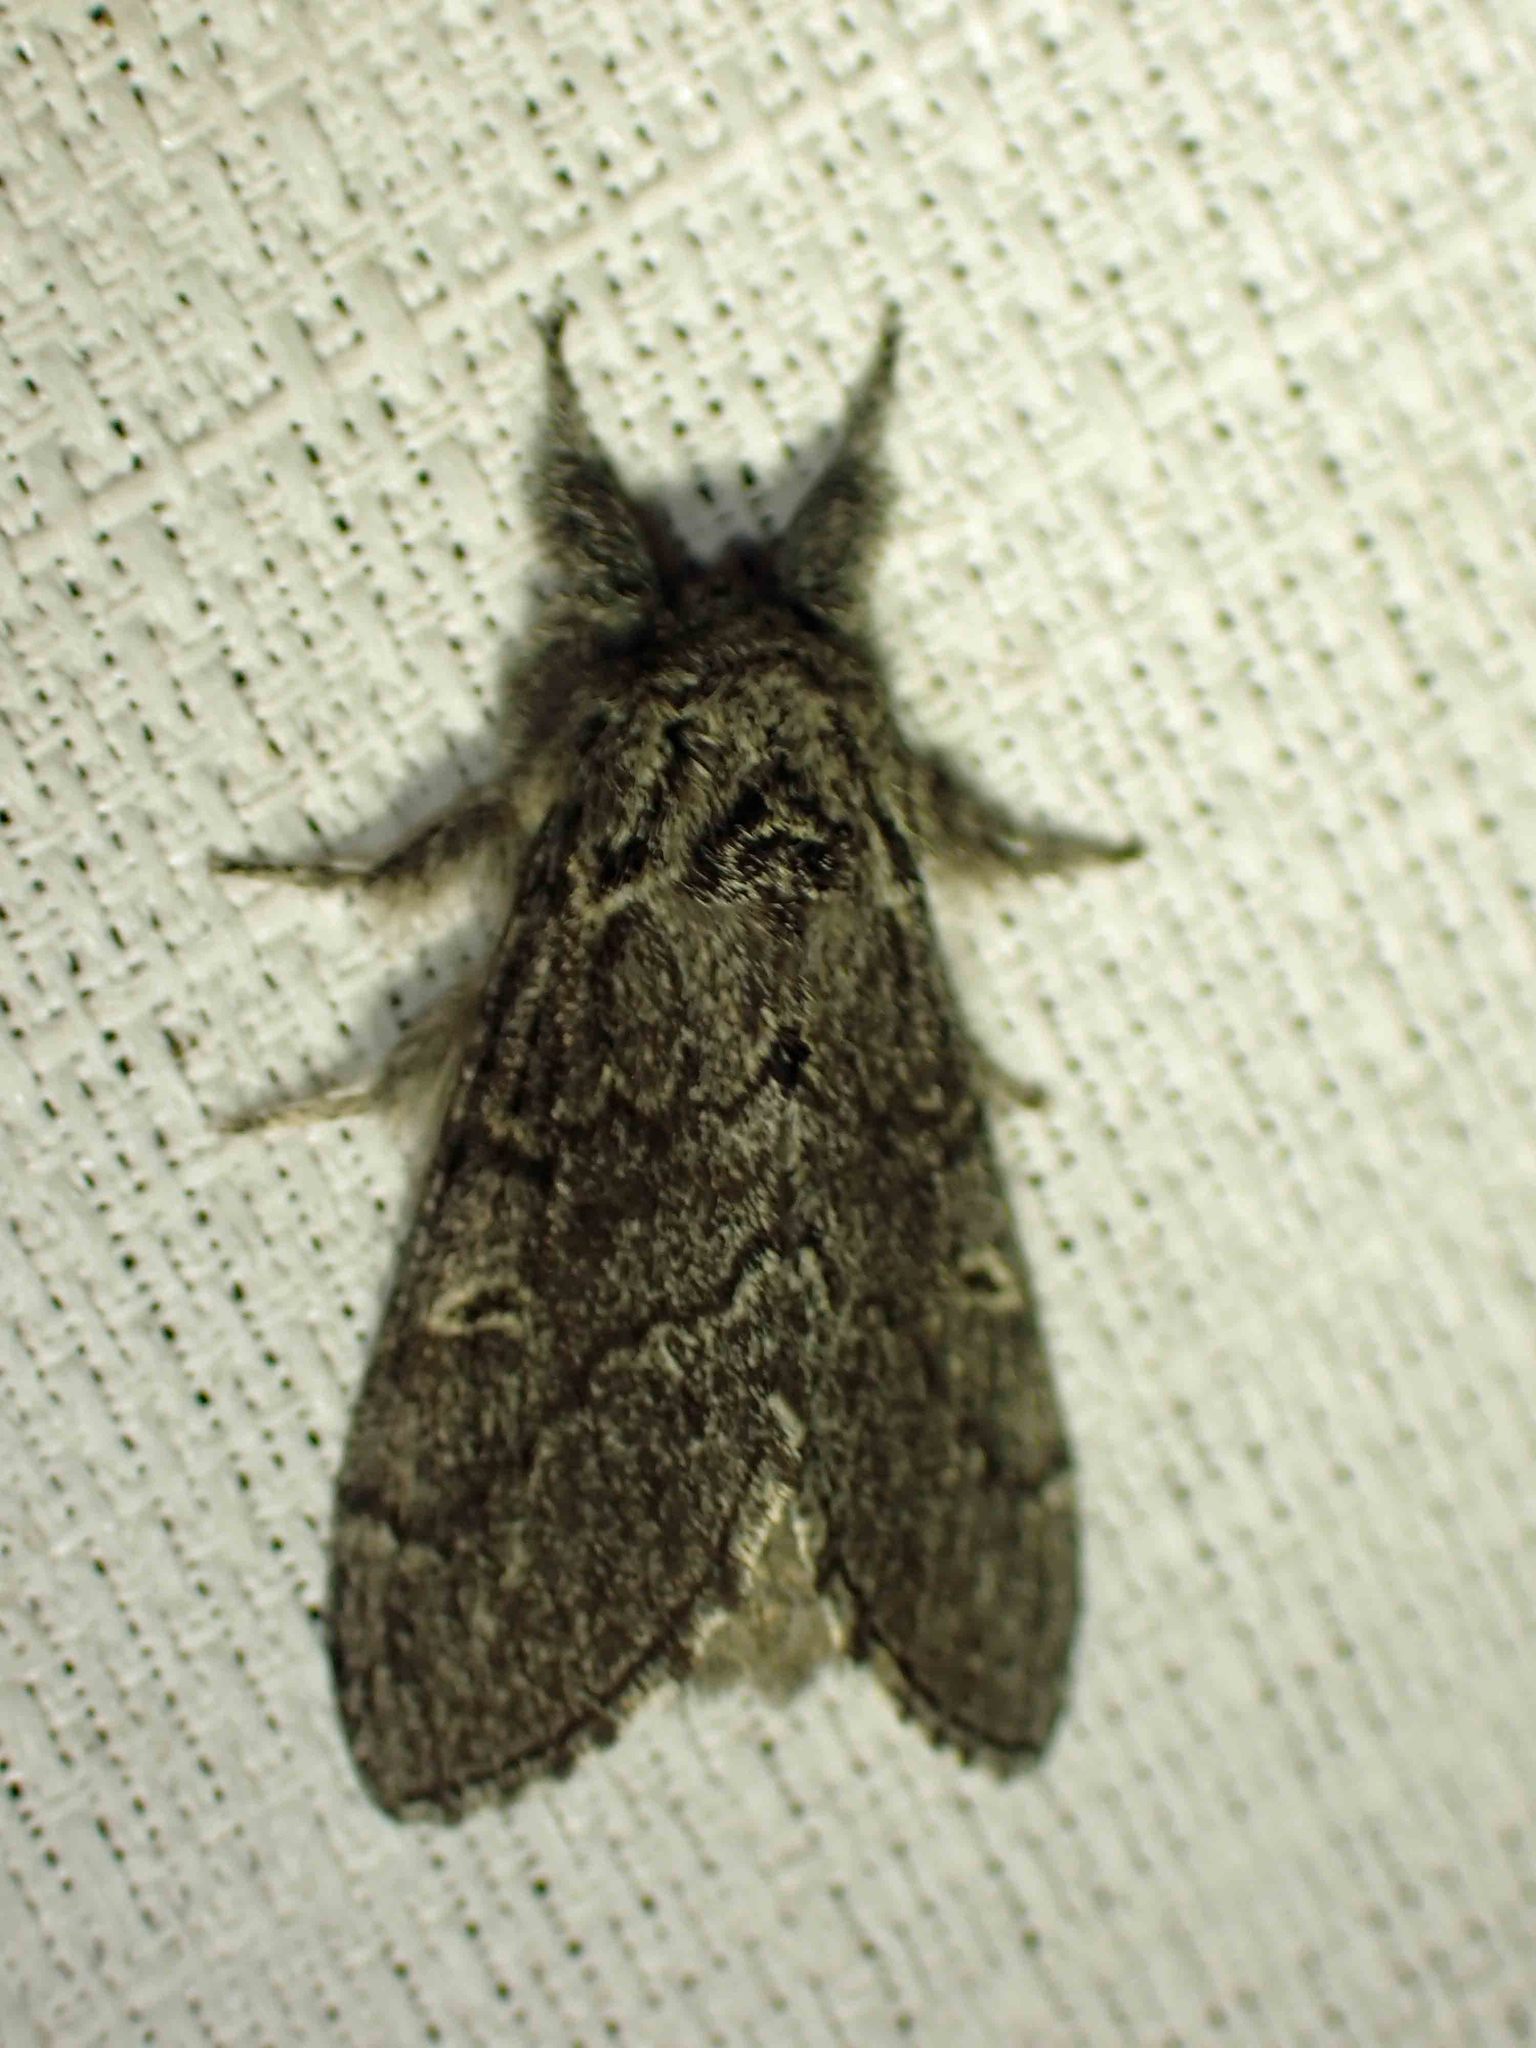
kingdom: Animalia
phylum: Arthropoda
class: Insecta
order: Lepidoptera
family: Notodontidae
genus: Notodonta
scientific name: Notodonta torva
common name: Large dark prominent
